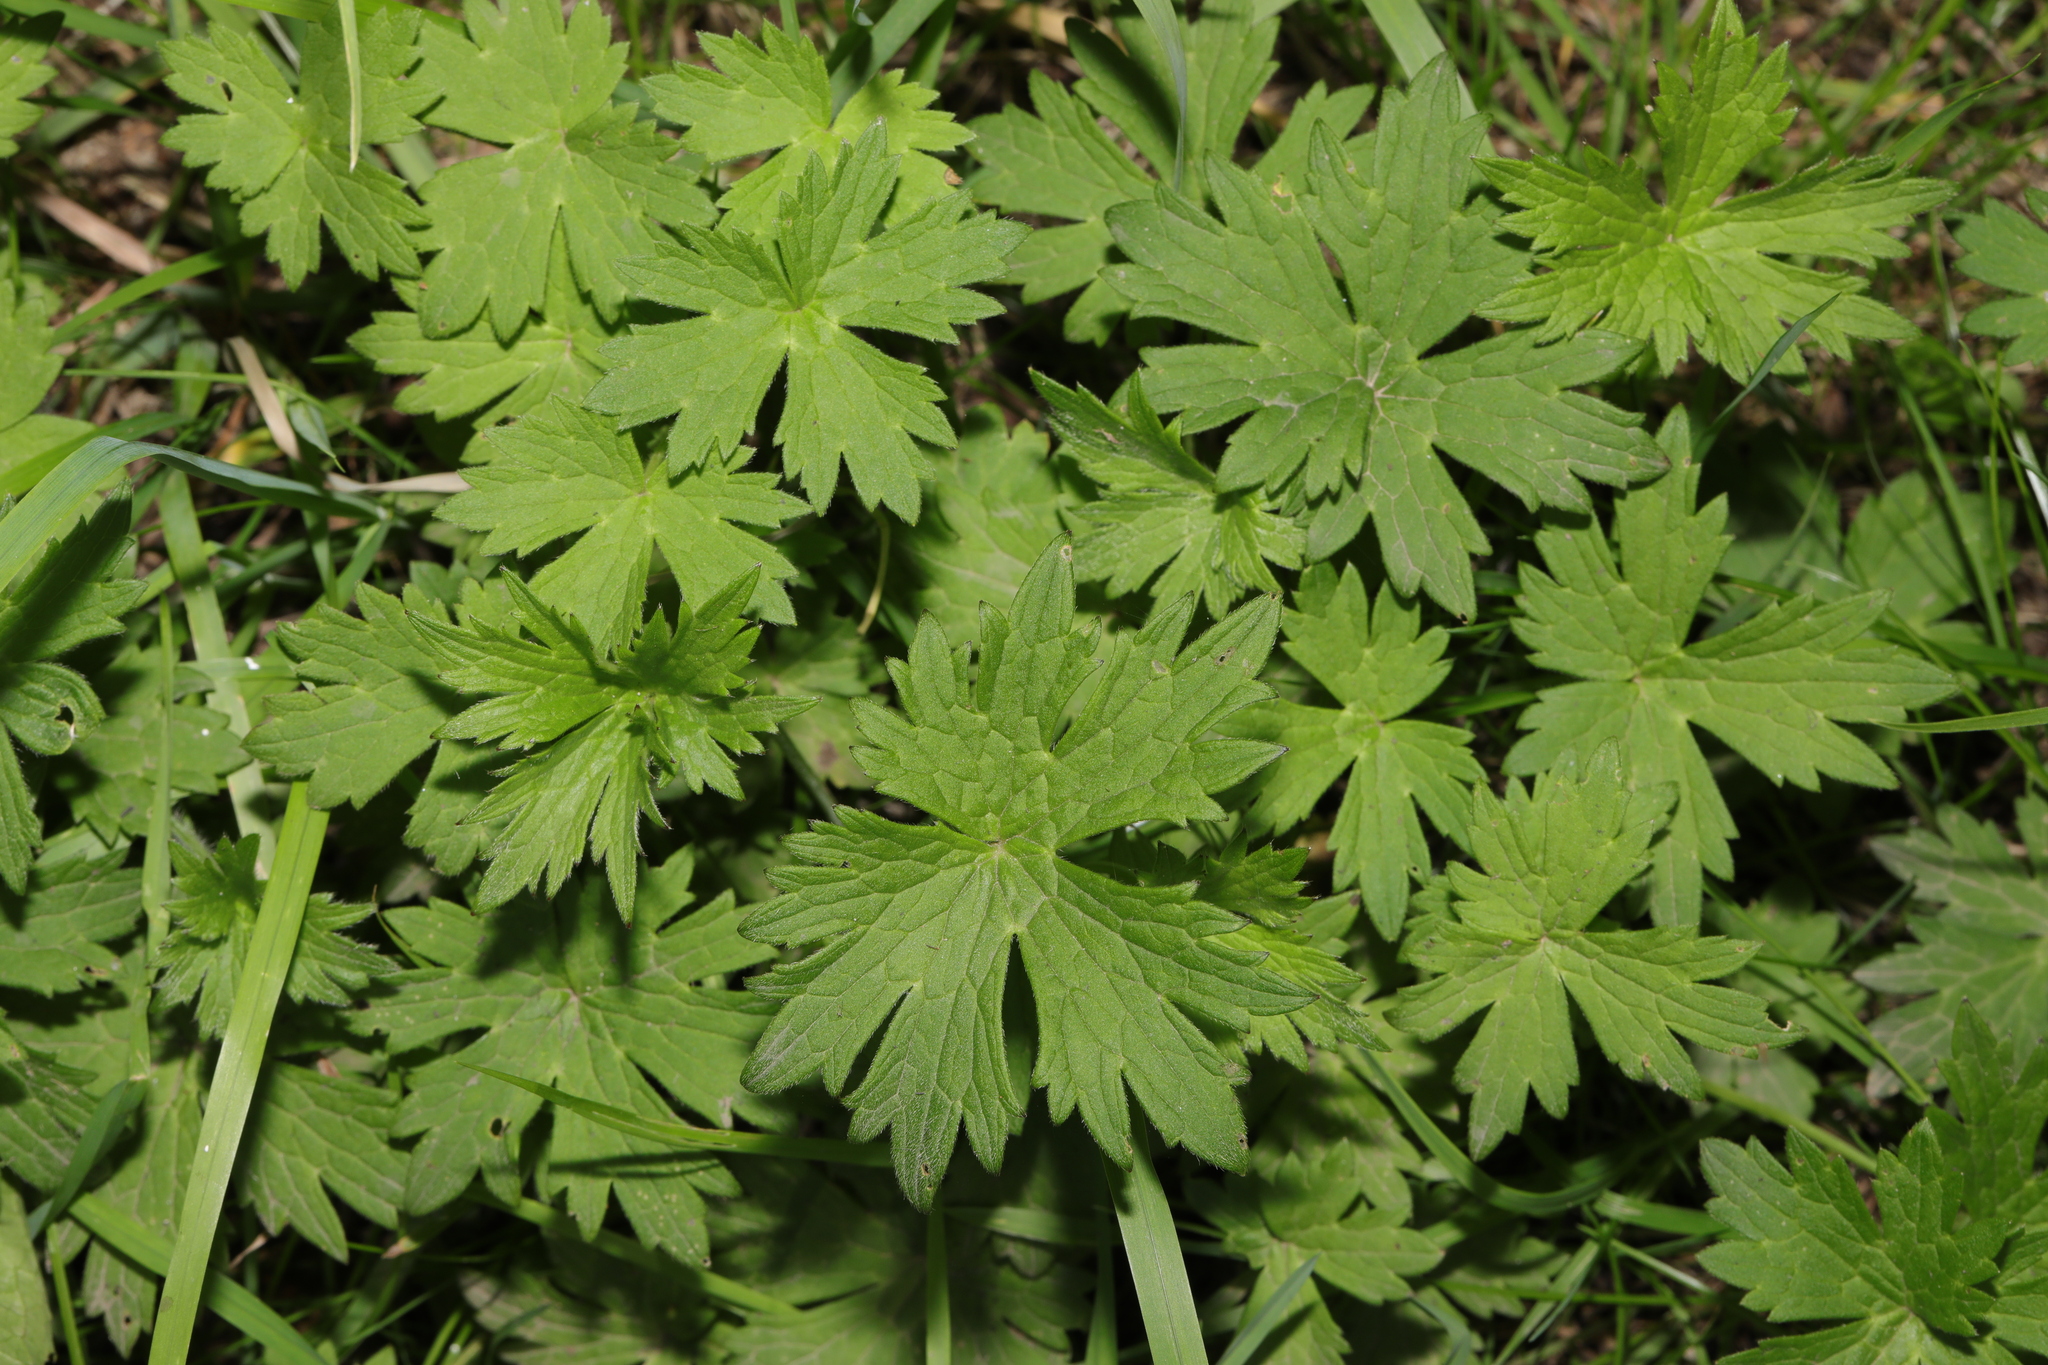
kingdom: Plantae
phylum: Tracheophyta
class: Magnoliopsida
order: Ranunculales
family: Ranunculaceae
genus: Ranunculus
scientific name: Ranunculus acris
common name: Meadow buttercup
